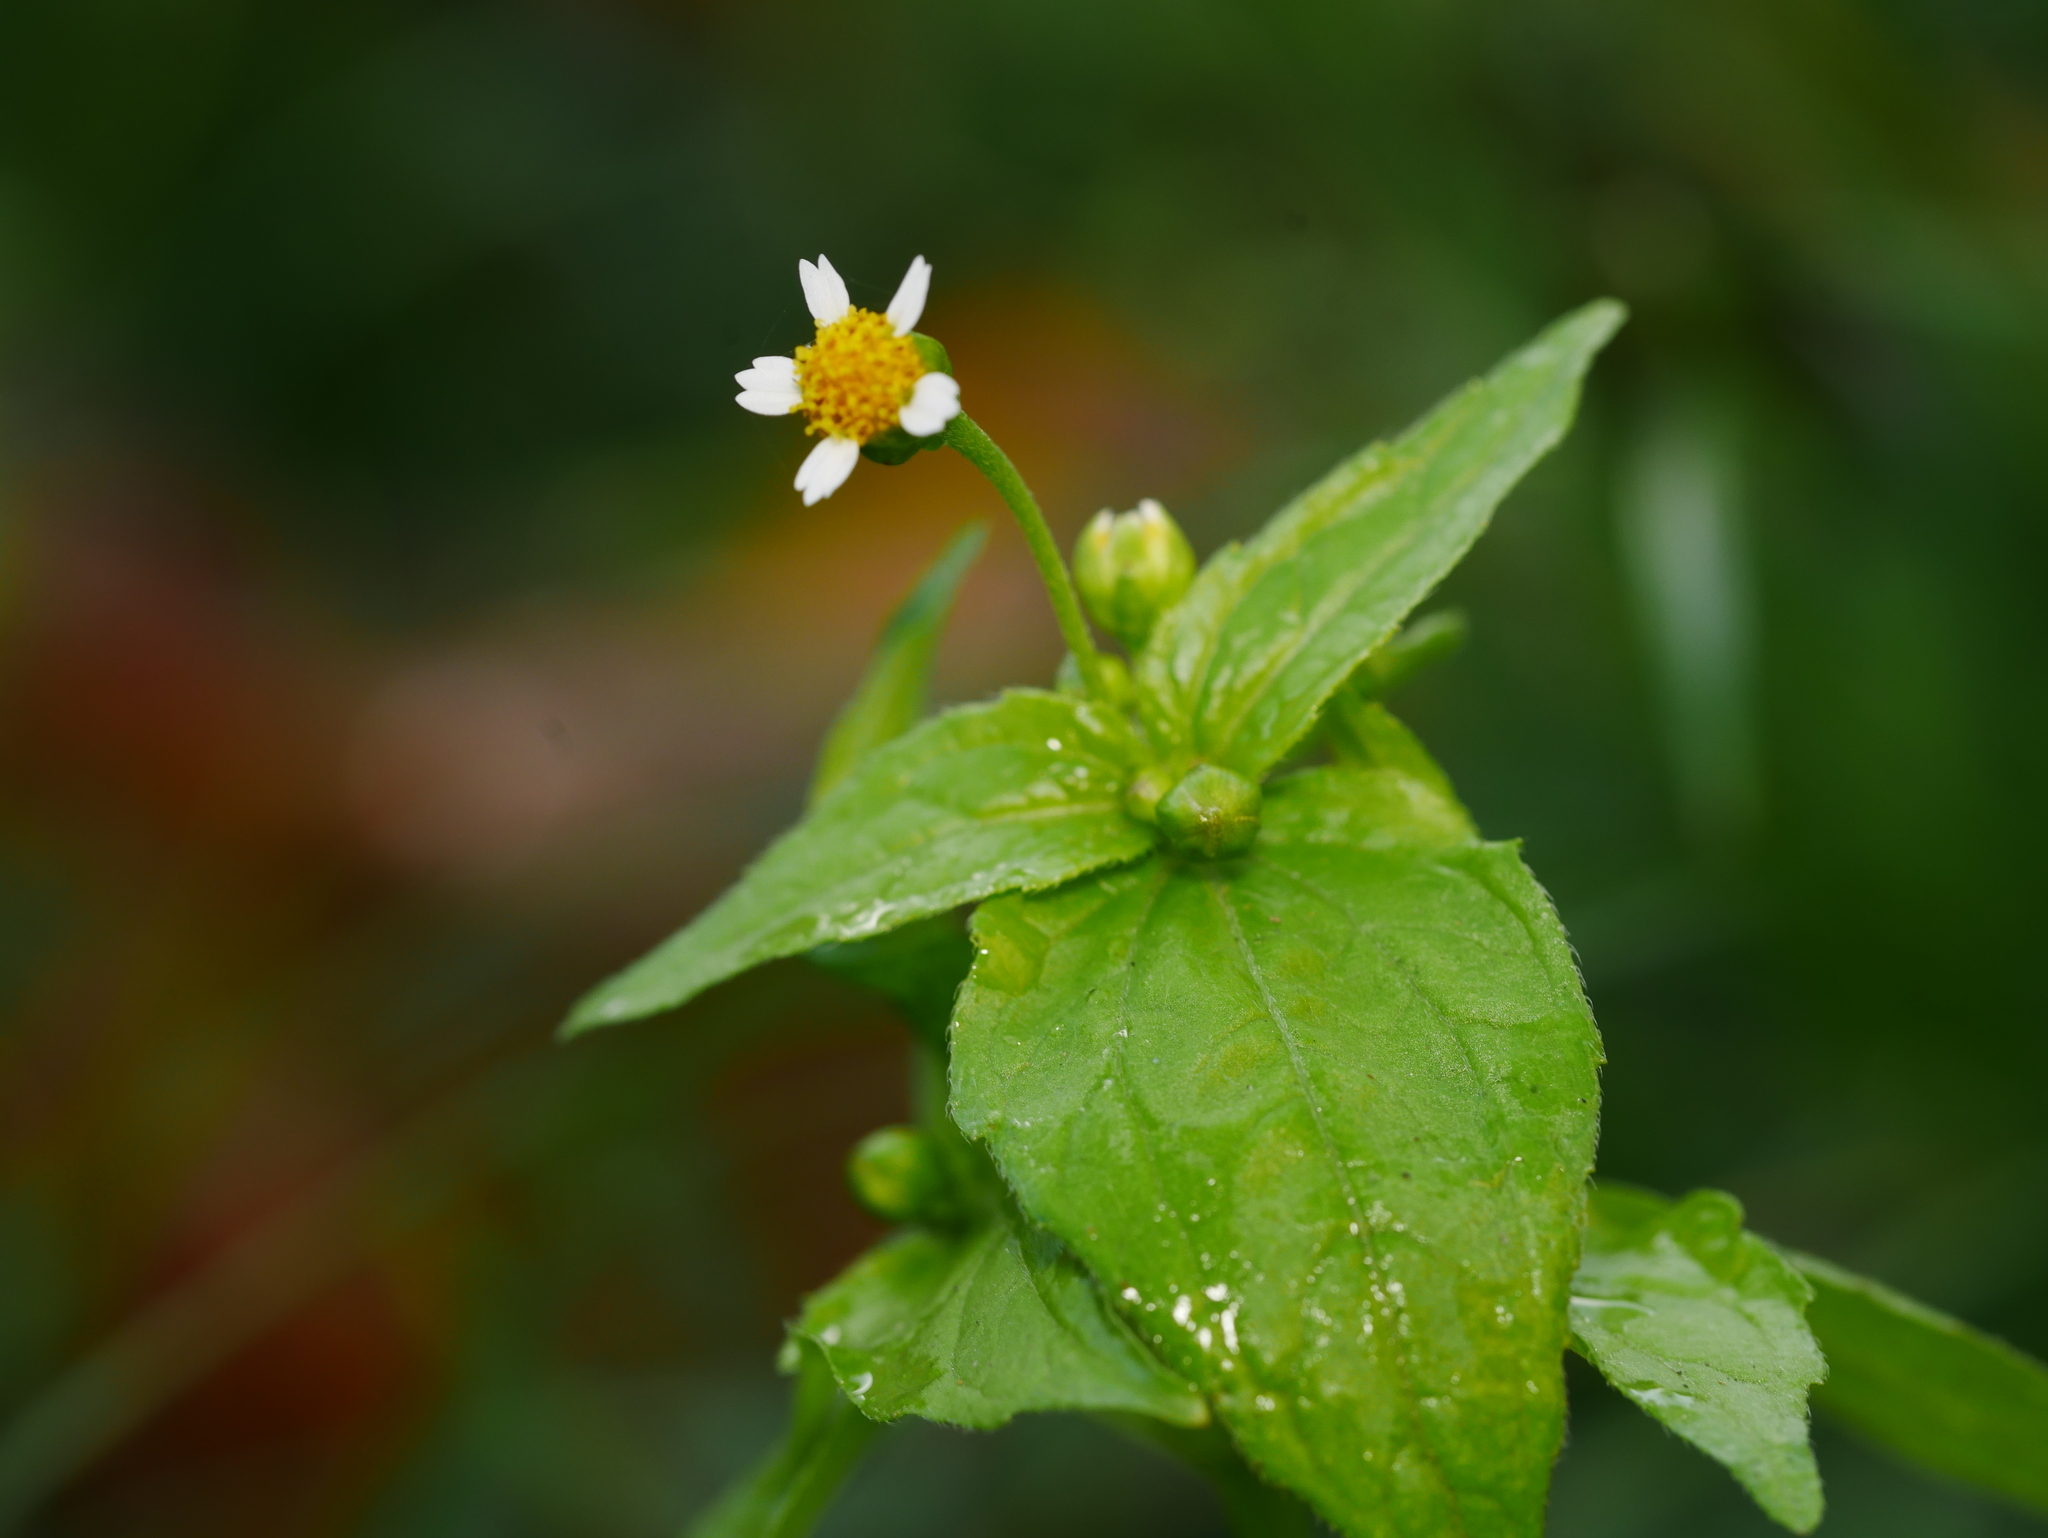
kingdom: Plantae
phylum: Tracheophyta
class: Magnoliopsida
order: Asterales
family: Asteraceae
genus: Galinsoga
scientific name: Galinsoga parviflora
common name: Gallant soldier
